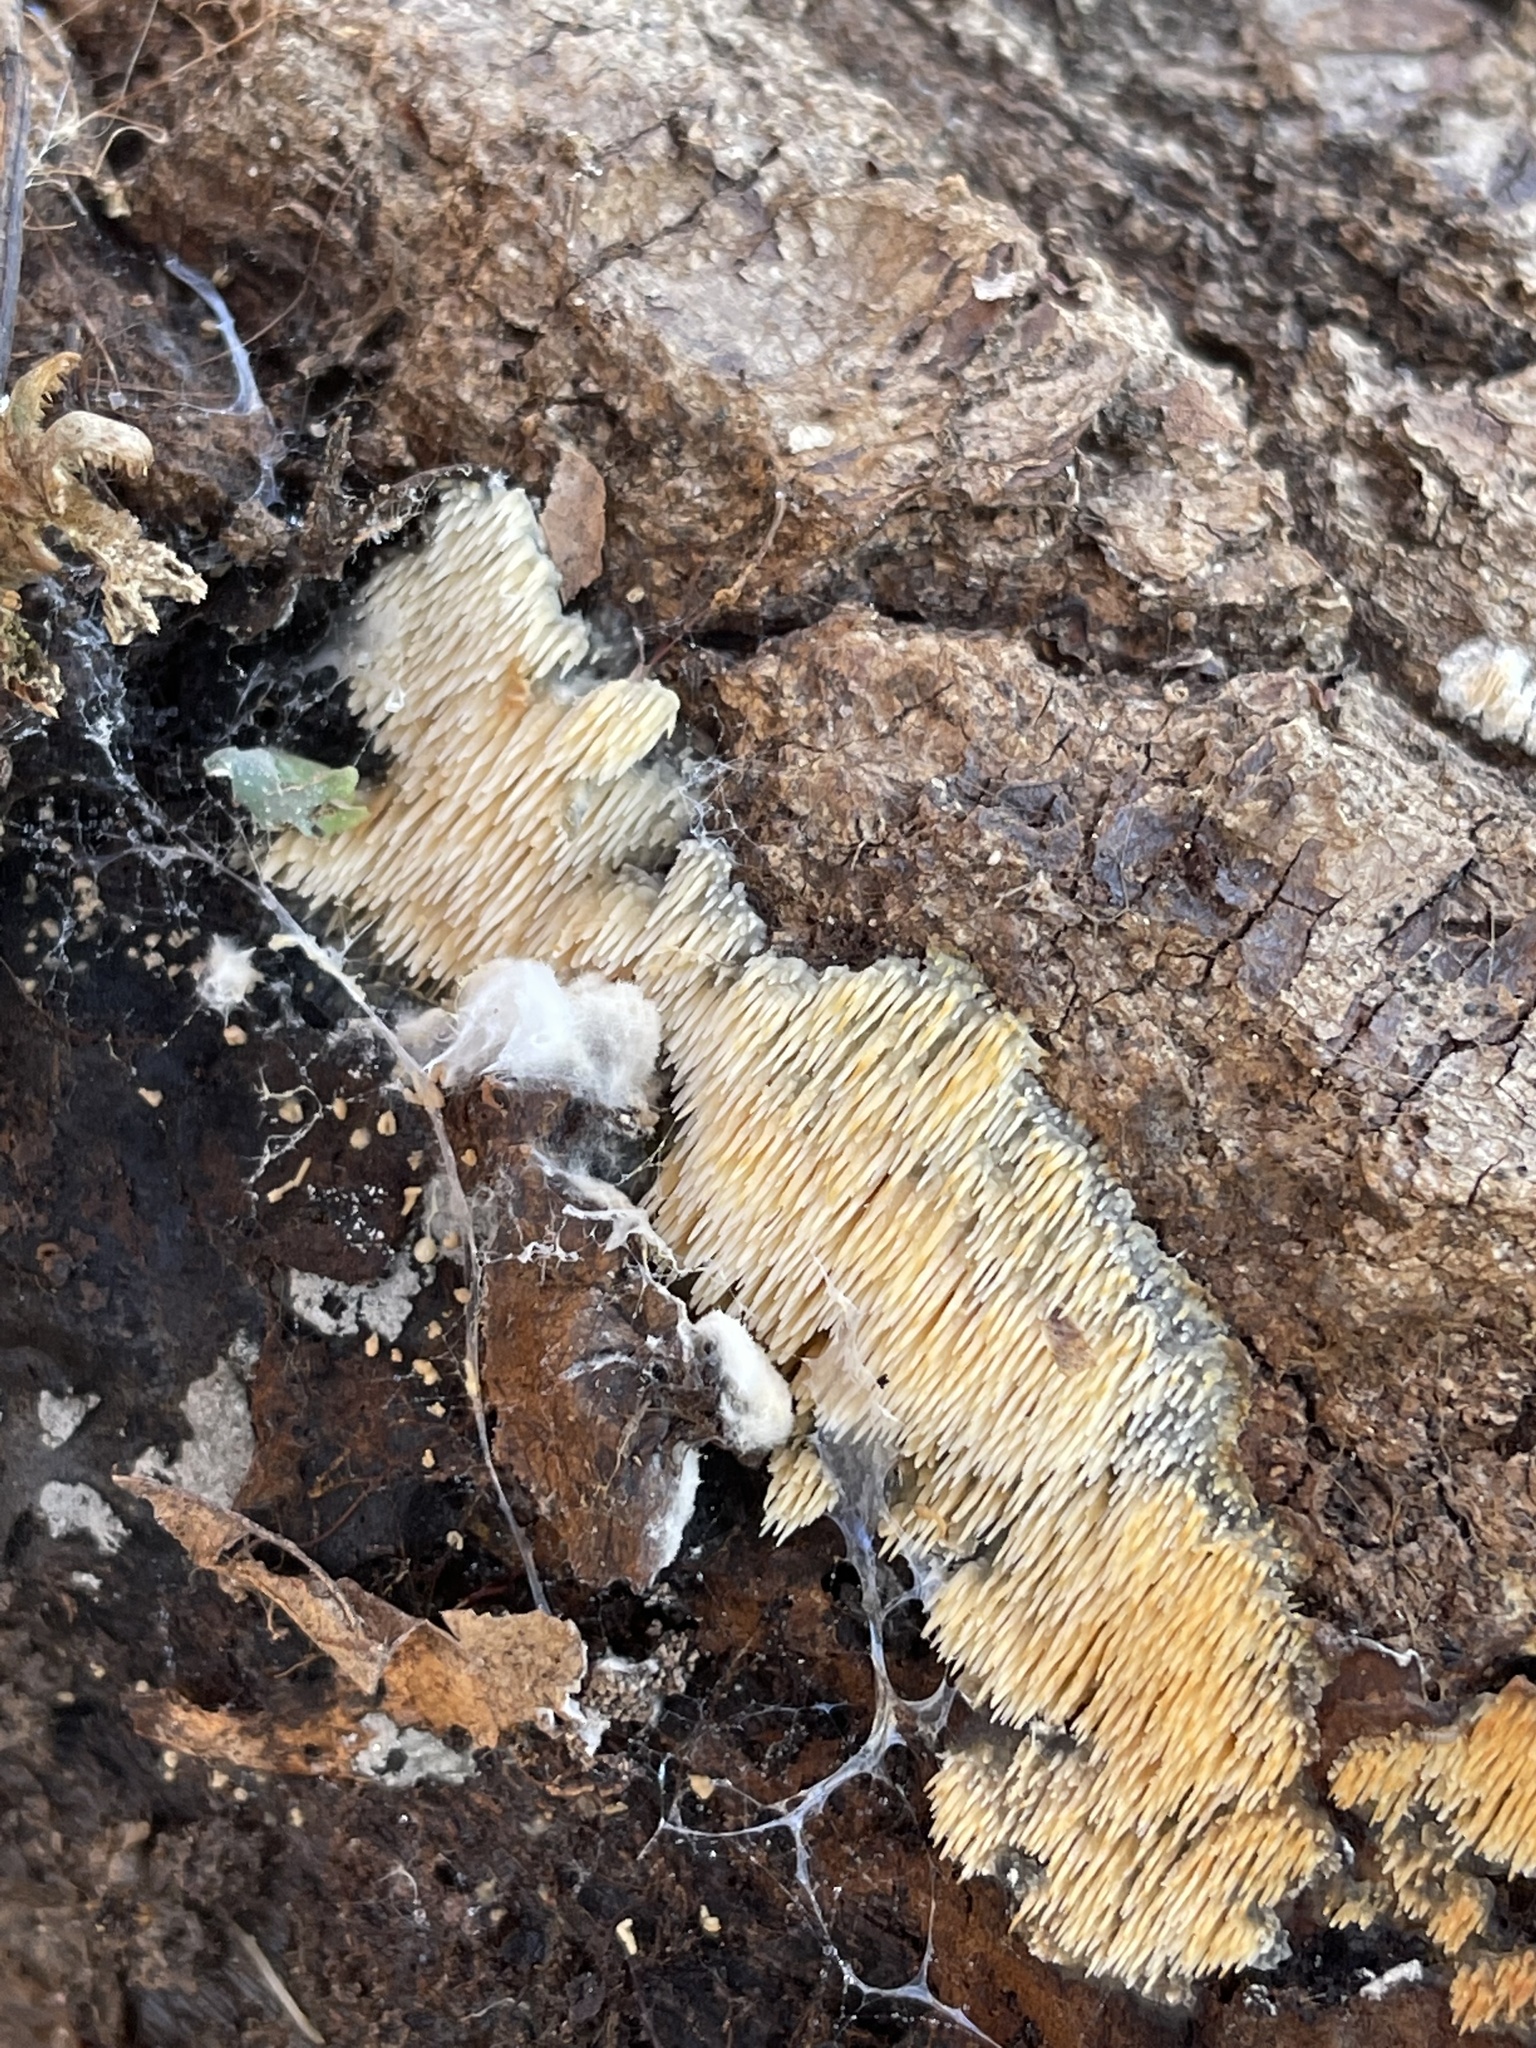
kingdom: Fungi
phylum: Basidiomycota
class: Agaricomycetes
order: Agaricales
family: Radulomycetaceae
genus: Radulomyces
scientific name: Radulomyces copelandii
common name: Asian beauty
